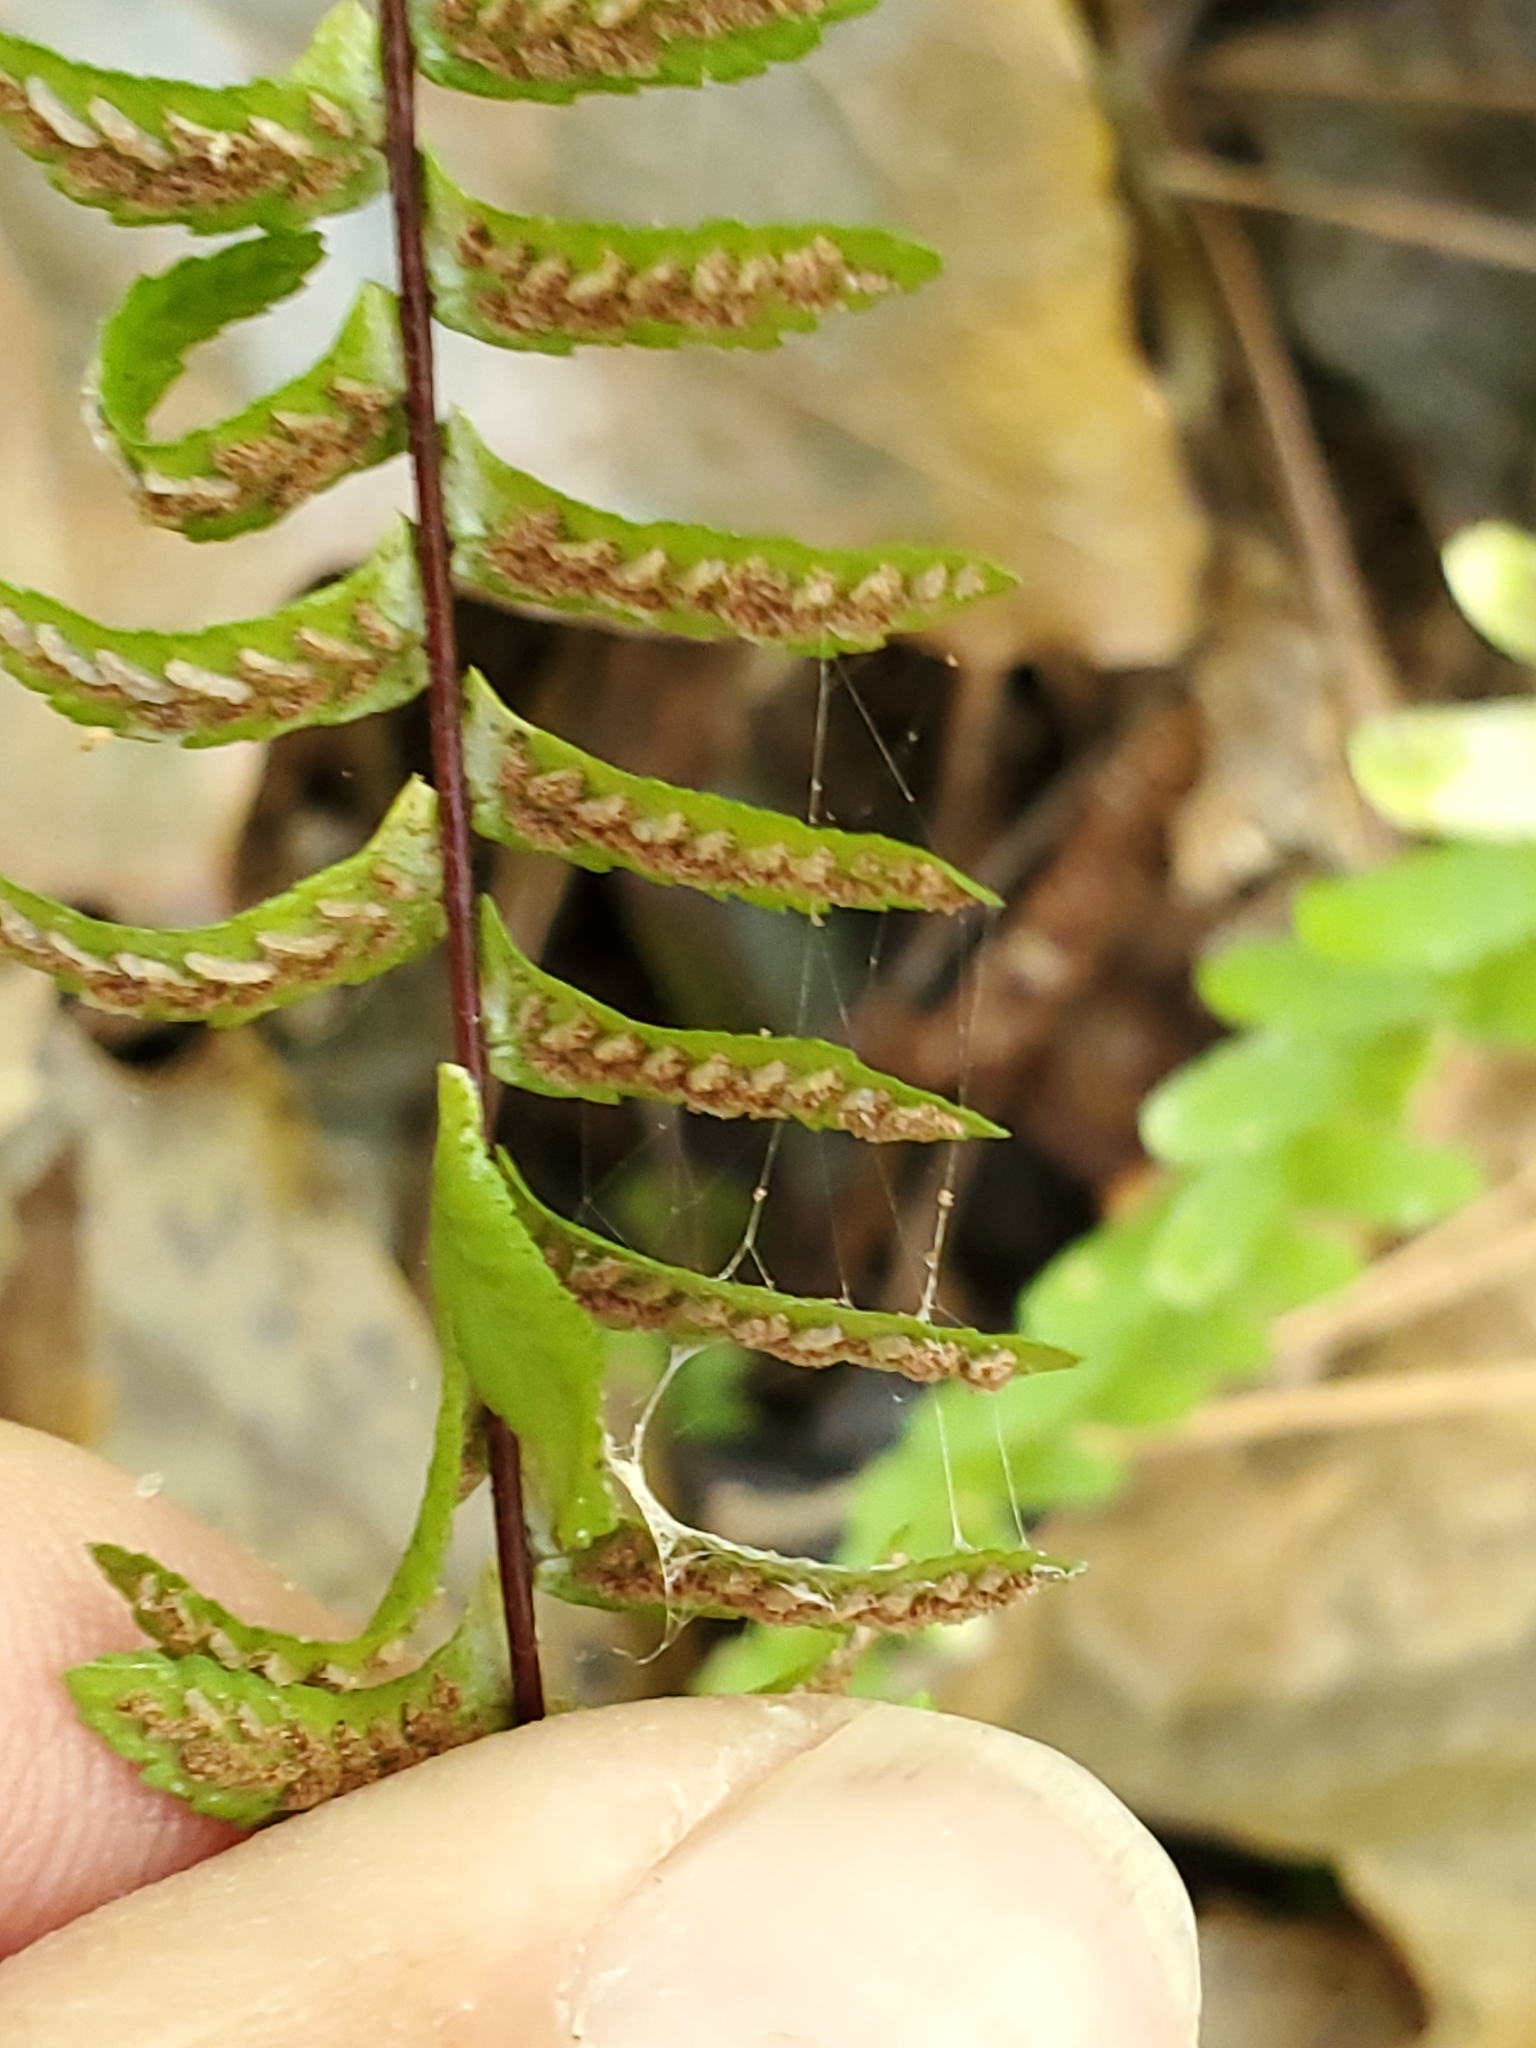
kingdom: Plantae
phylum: Tracheophyta
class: Polypodiopsida
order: Polypodiales
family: Aspleniaceae
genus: Asplenium
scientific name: Asplenium platyneuron
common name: Ebony spleenwort
